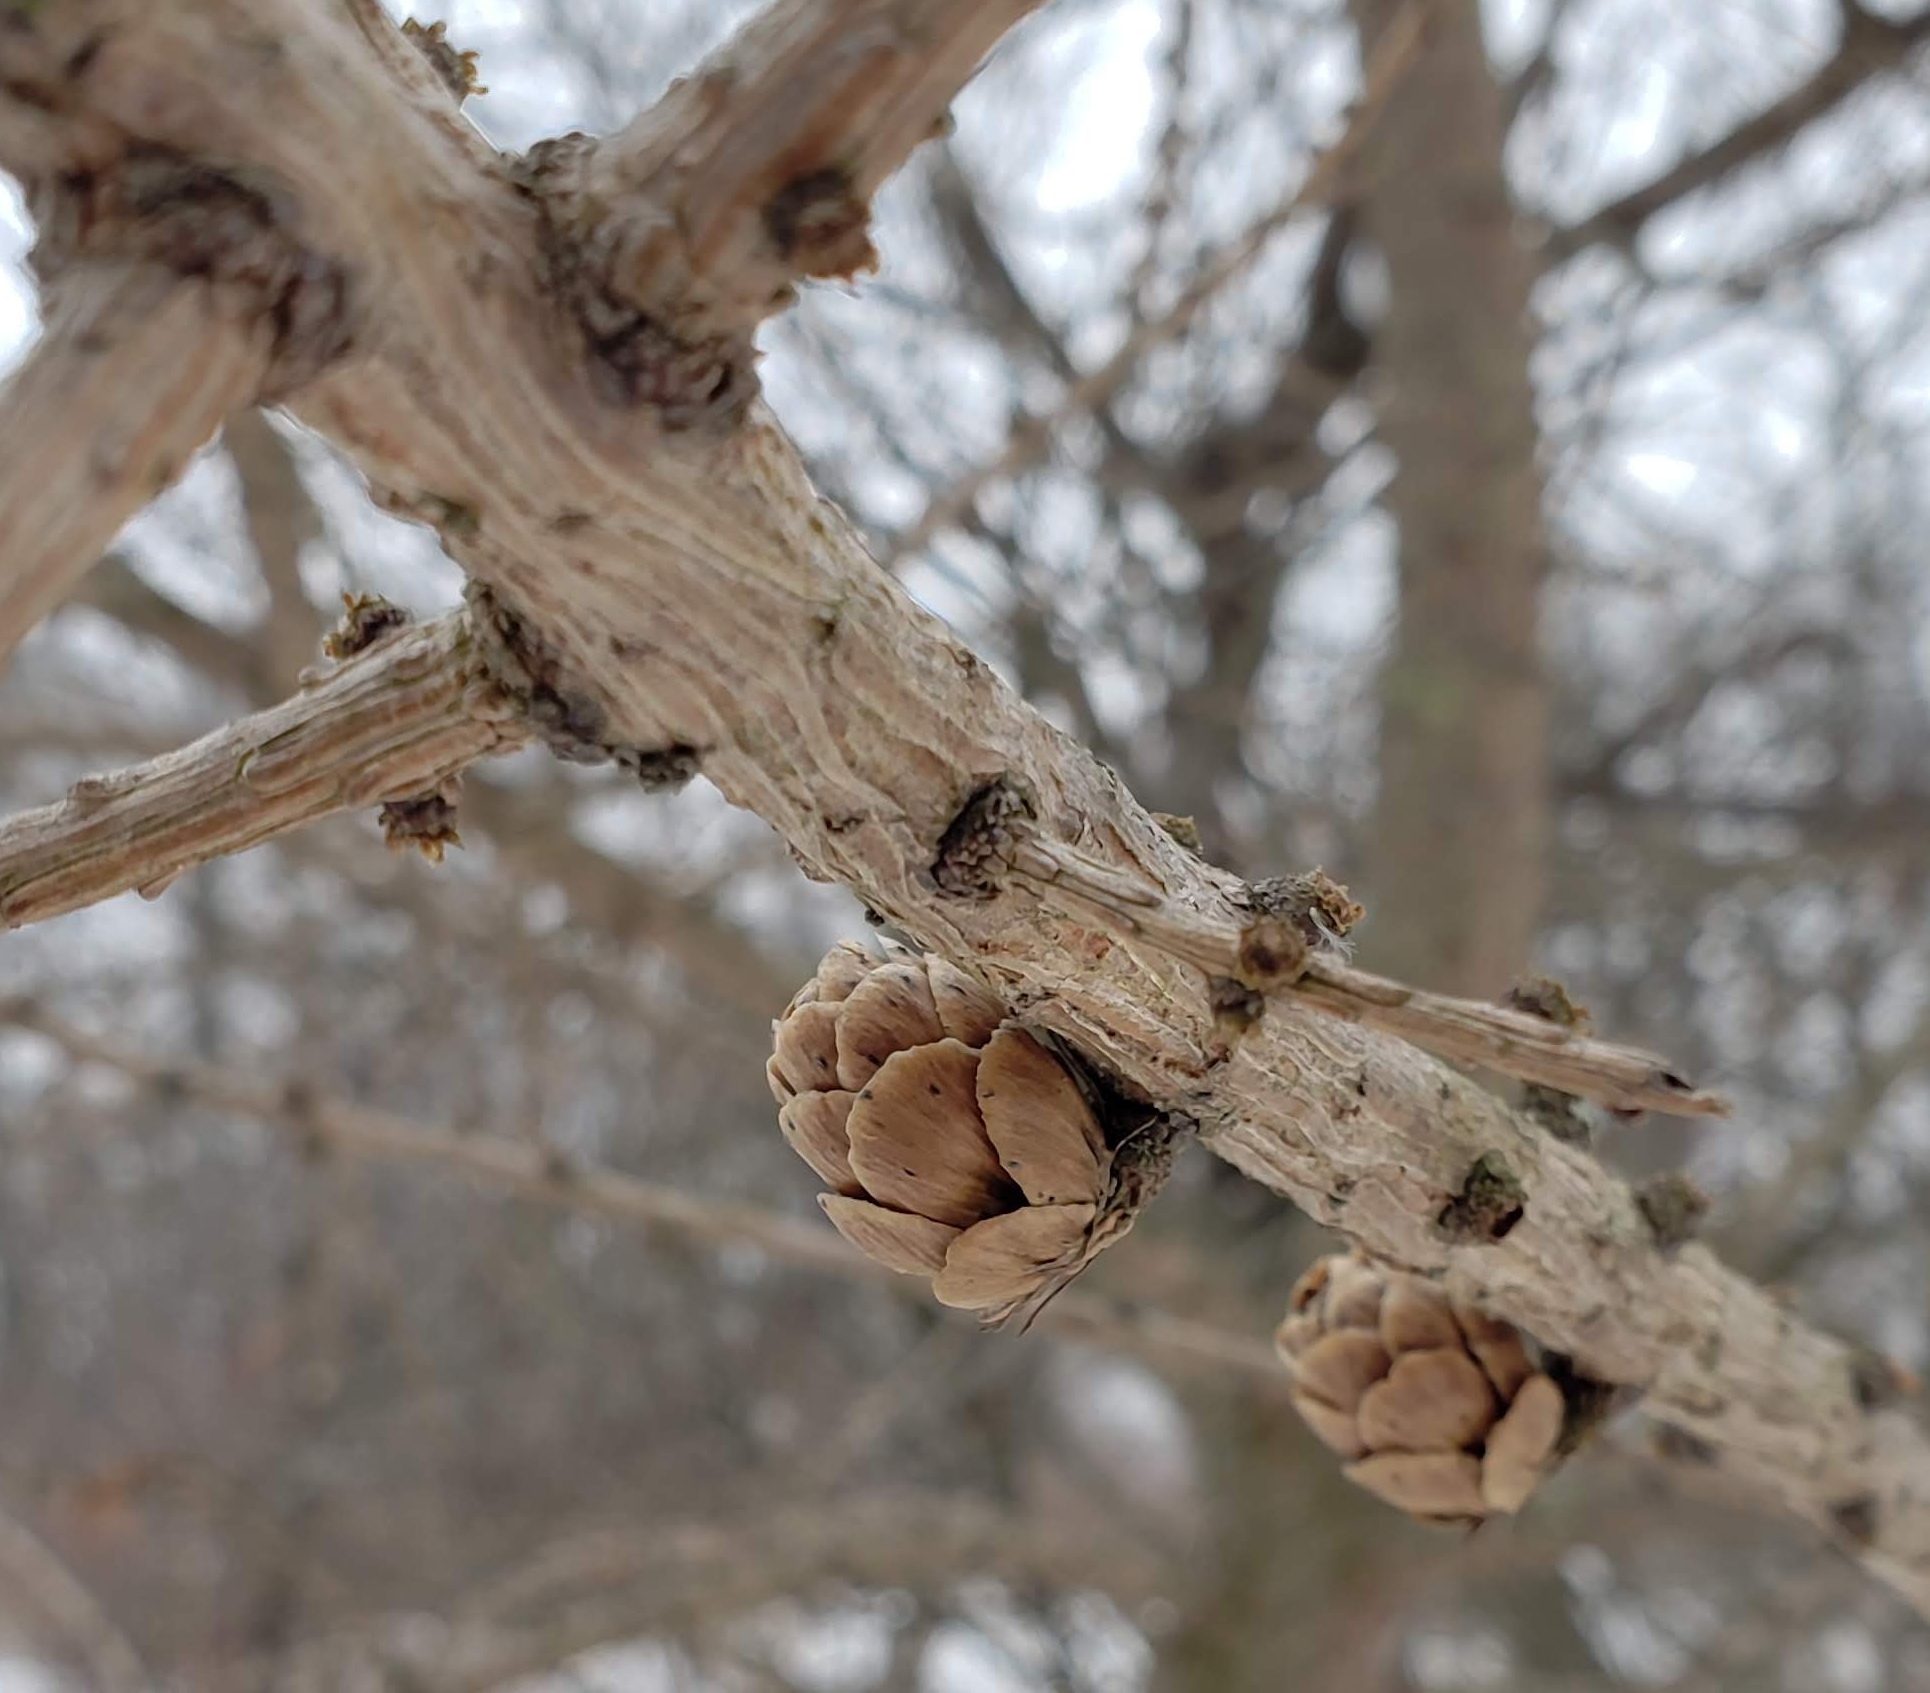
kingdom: Plantae
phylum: Tracheophyta
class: Pinopsida
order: Pinales
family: Pinaceae
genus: Larix
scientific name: Larix laricina
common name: American larch
